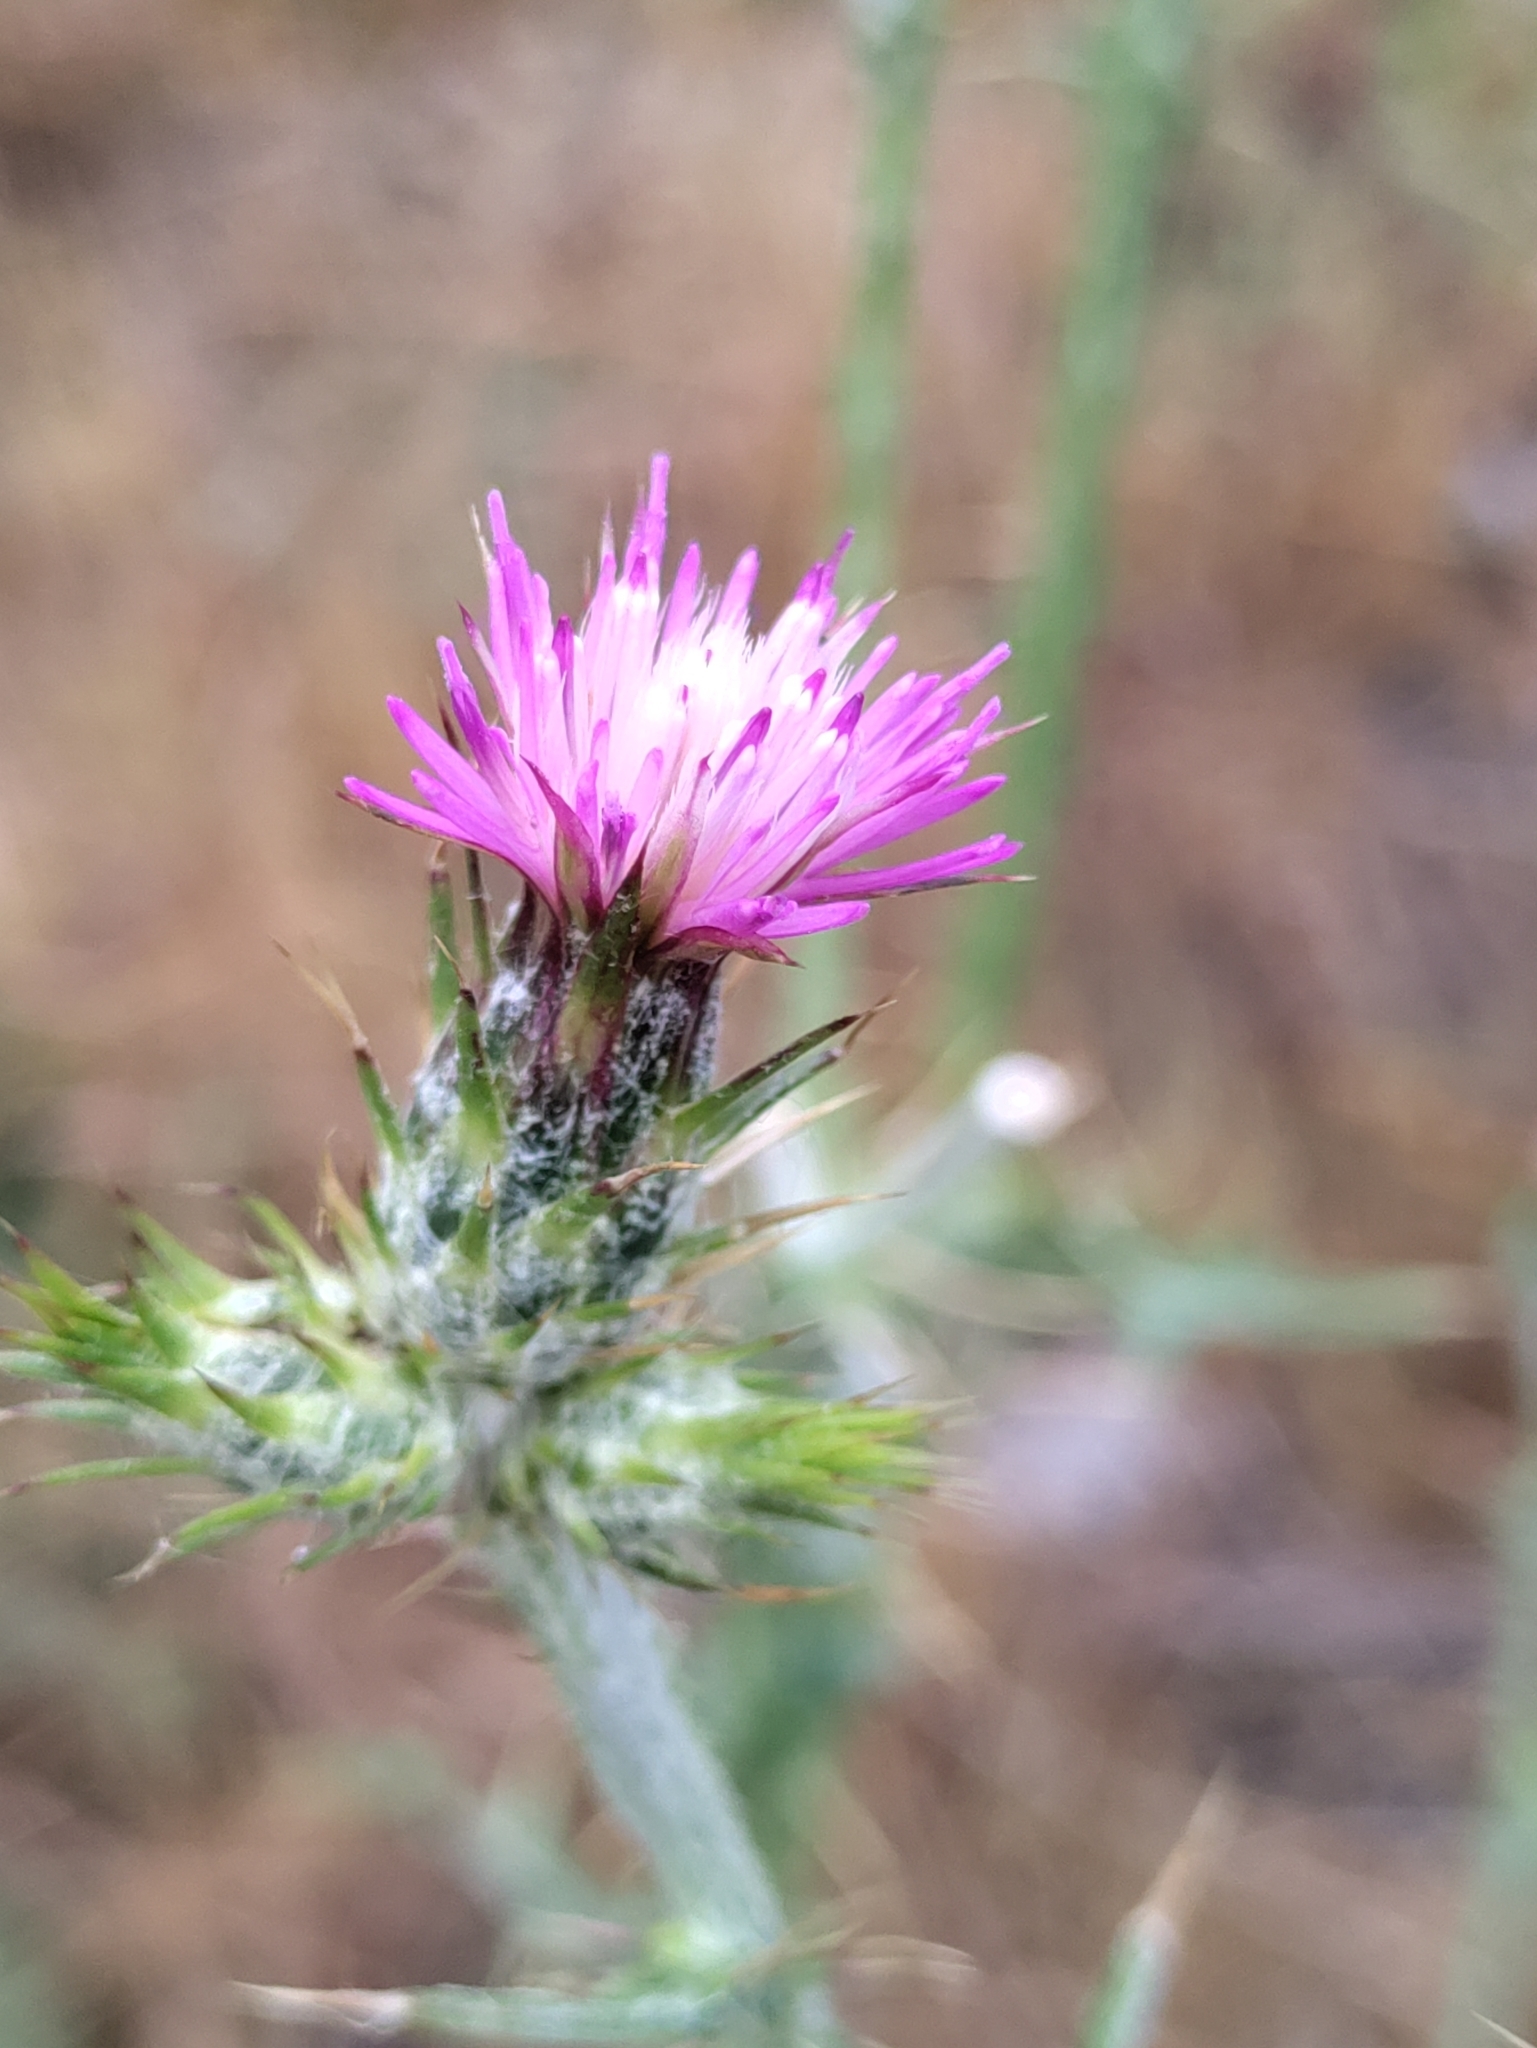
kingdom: Plantae
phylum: Tracheophyta
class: Magnoliopsida
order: Asterales
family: Asteraceae
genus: Carduus
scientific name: Carduus pycnocephalus
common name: Plymouth thistle
